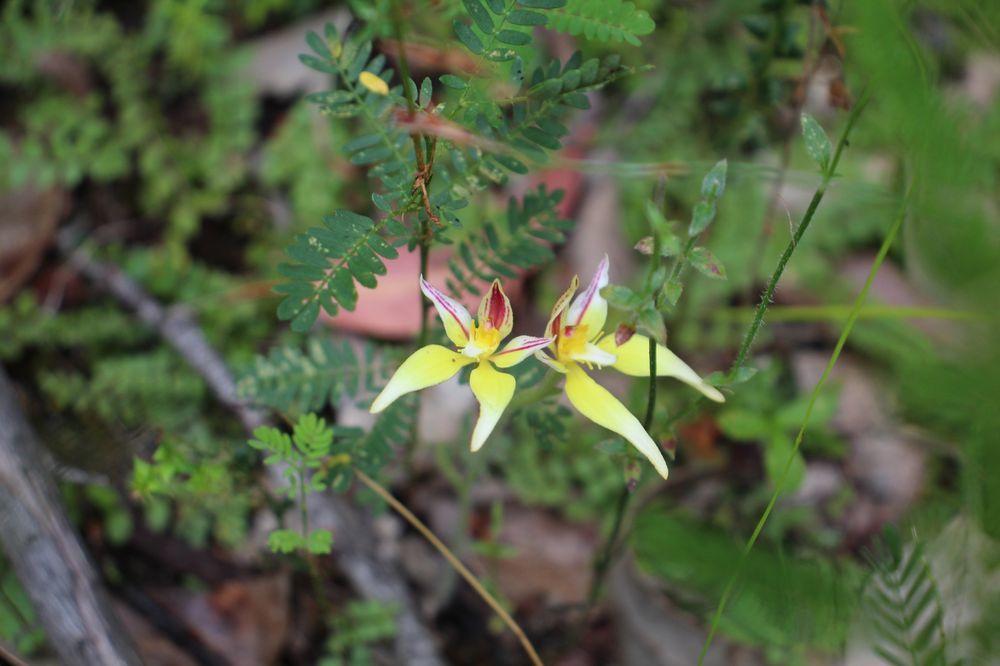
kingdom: Plantae
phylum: Tracheophyta
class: Liliopsida
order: Asparagales
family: Orchidaceae
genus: Caladenia
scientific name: Caladenia flava
